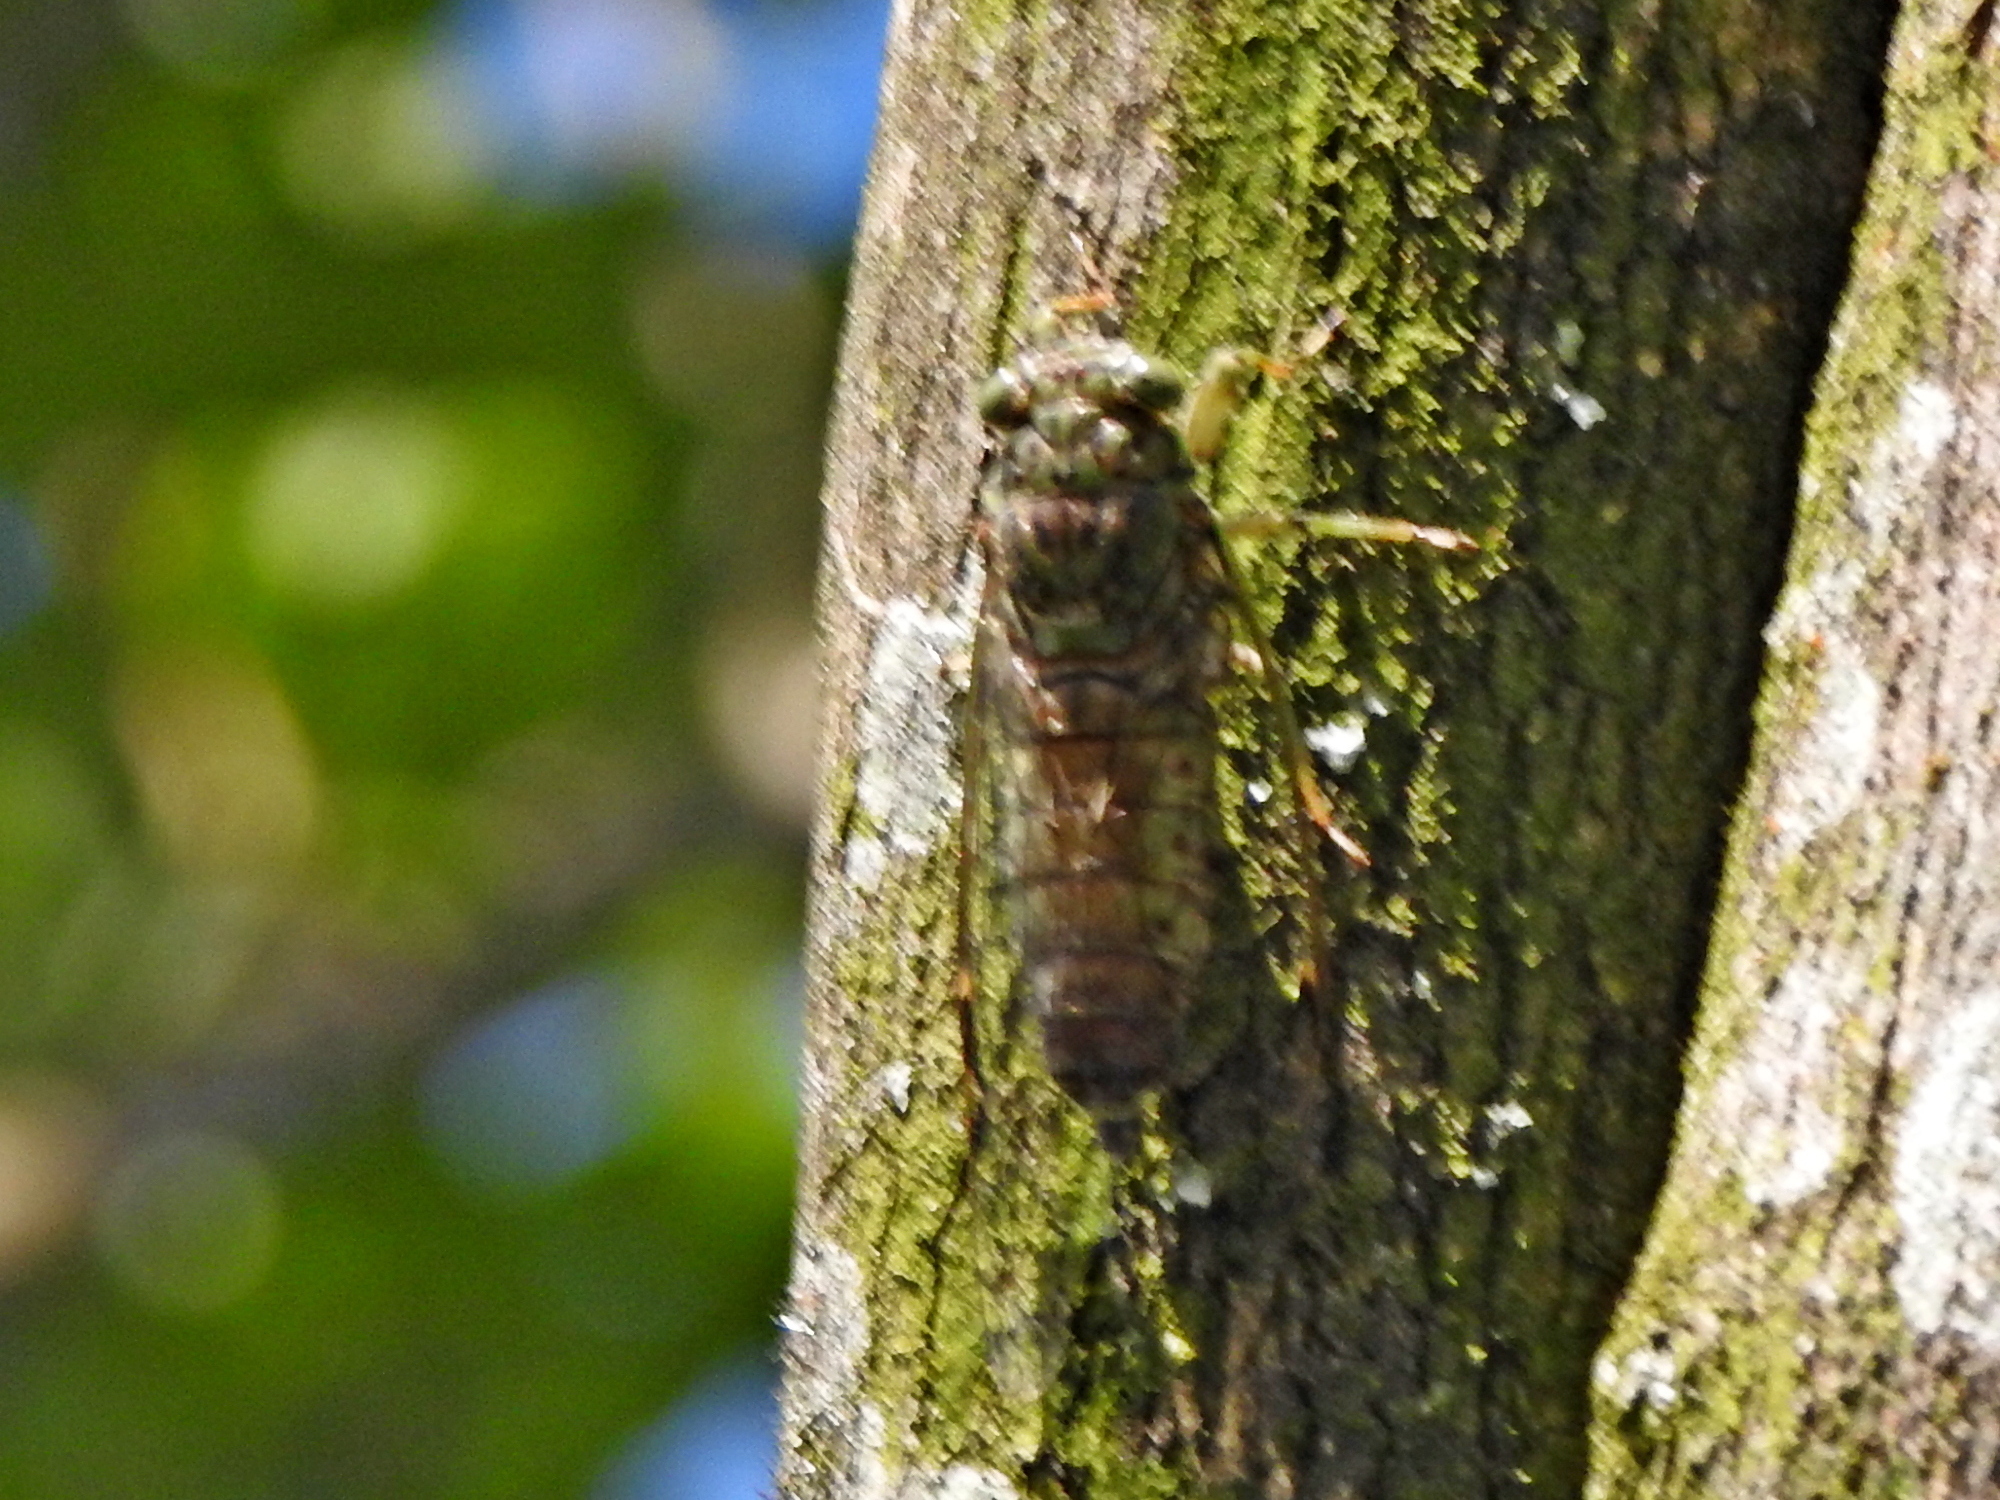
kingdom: Animalia
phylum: Arthropoda
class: Insecta
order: Hemiptera
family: Cicadidae
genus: Euterpnosia
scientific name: Euterpnosia viridifrons
